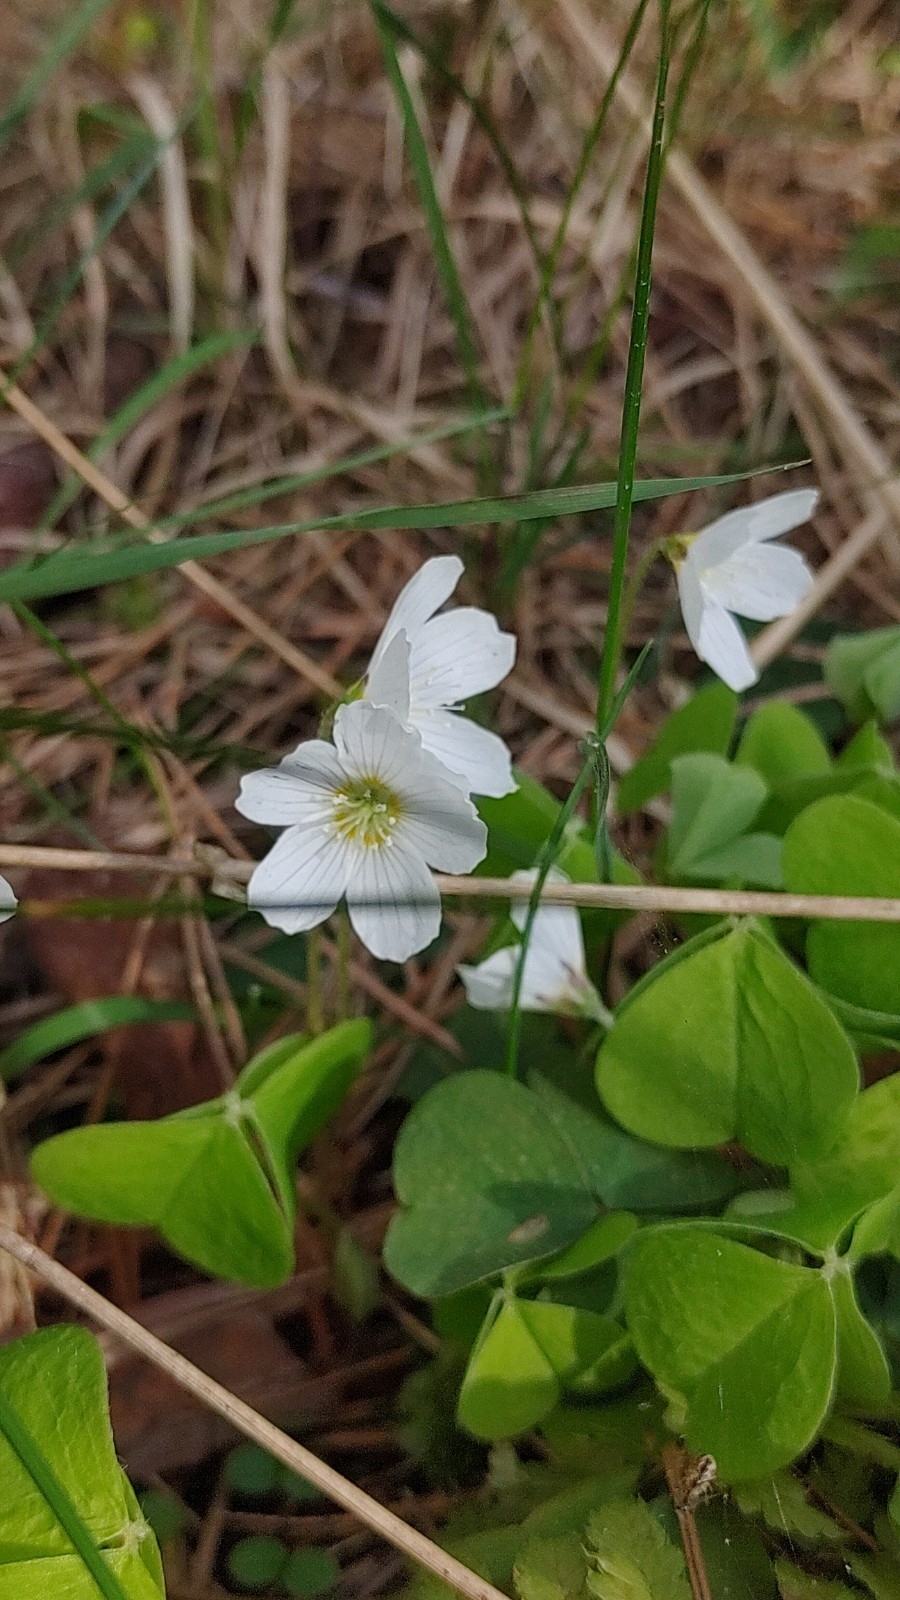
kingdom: Plantae
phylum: Tracheophyta
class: Magnoliopsida
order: Oxalidales
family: Oxalidaceae
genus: Oxalis
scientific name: Oxalis acetosella
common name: Wood-sorrel
